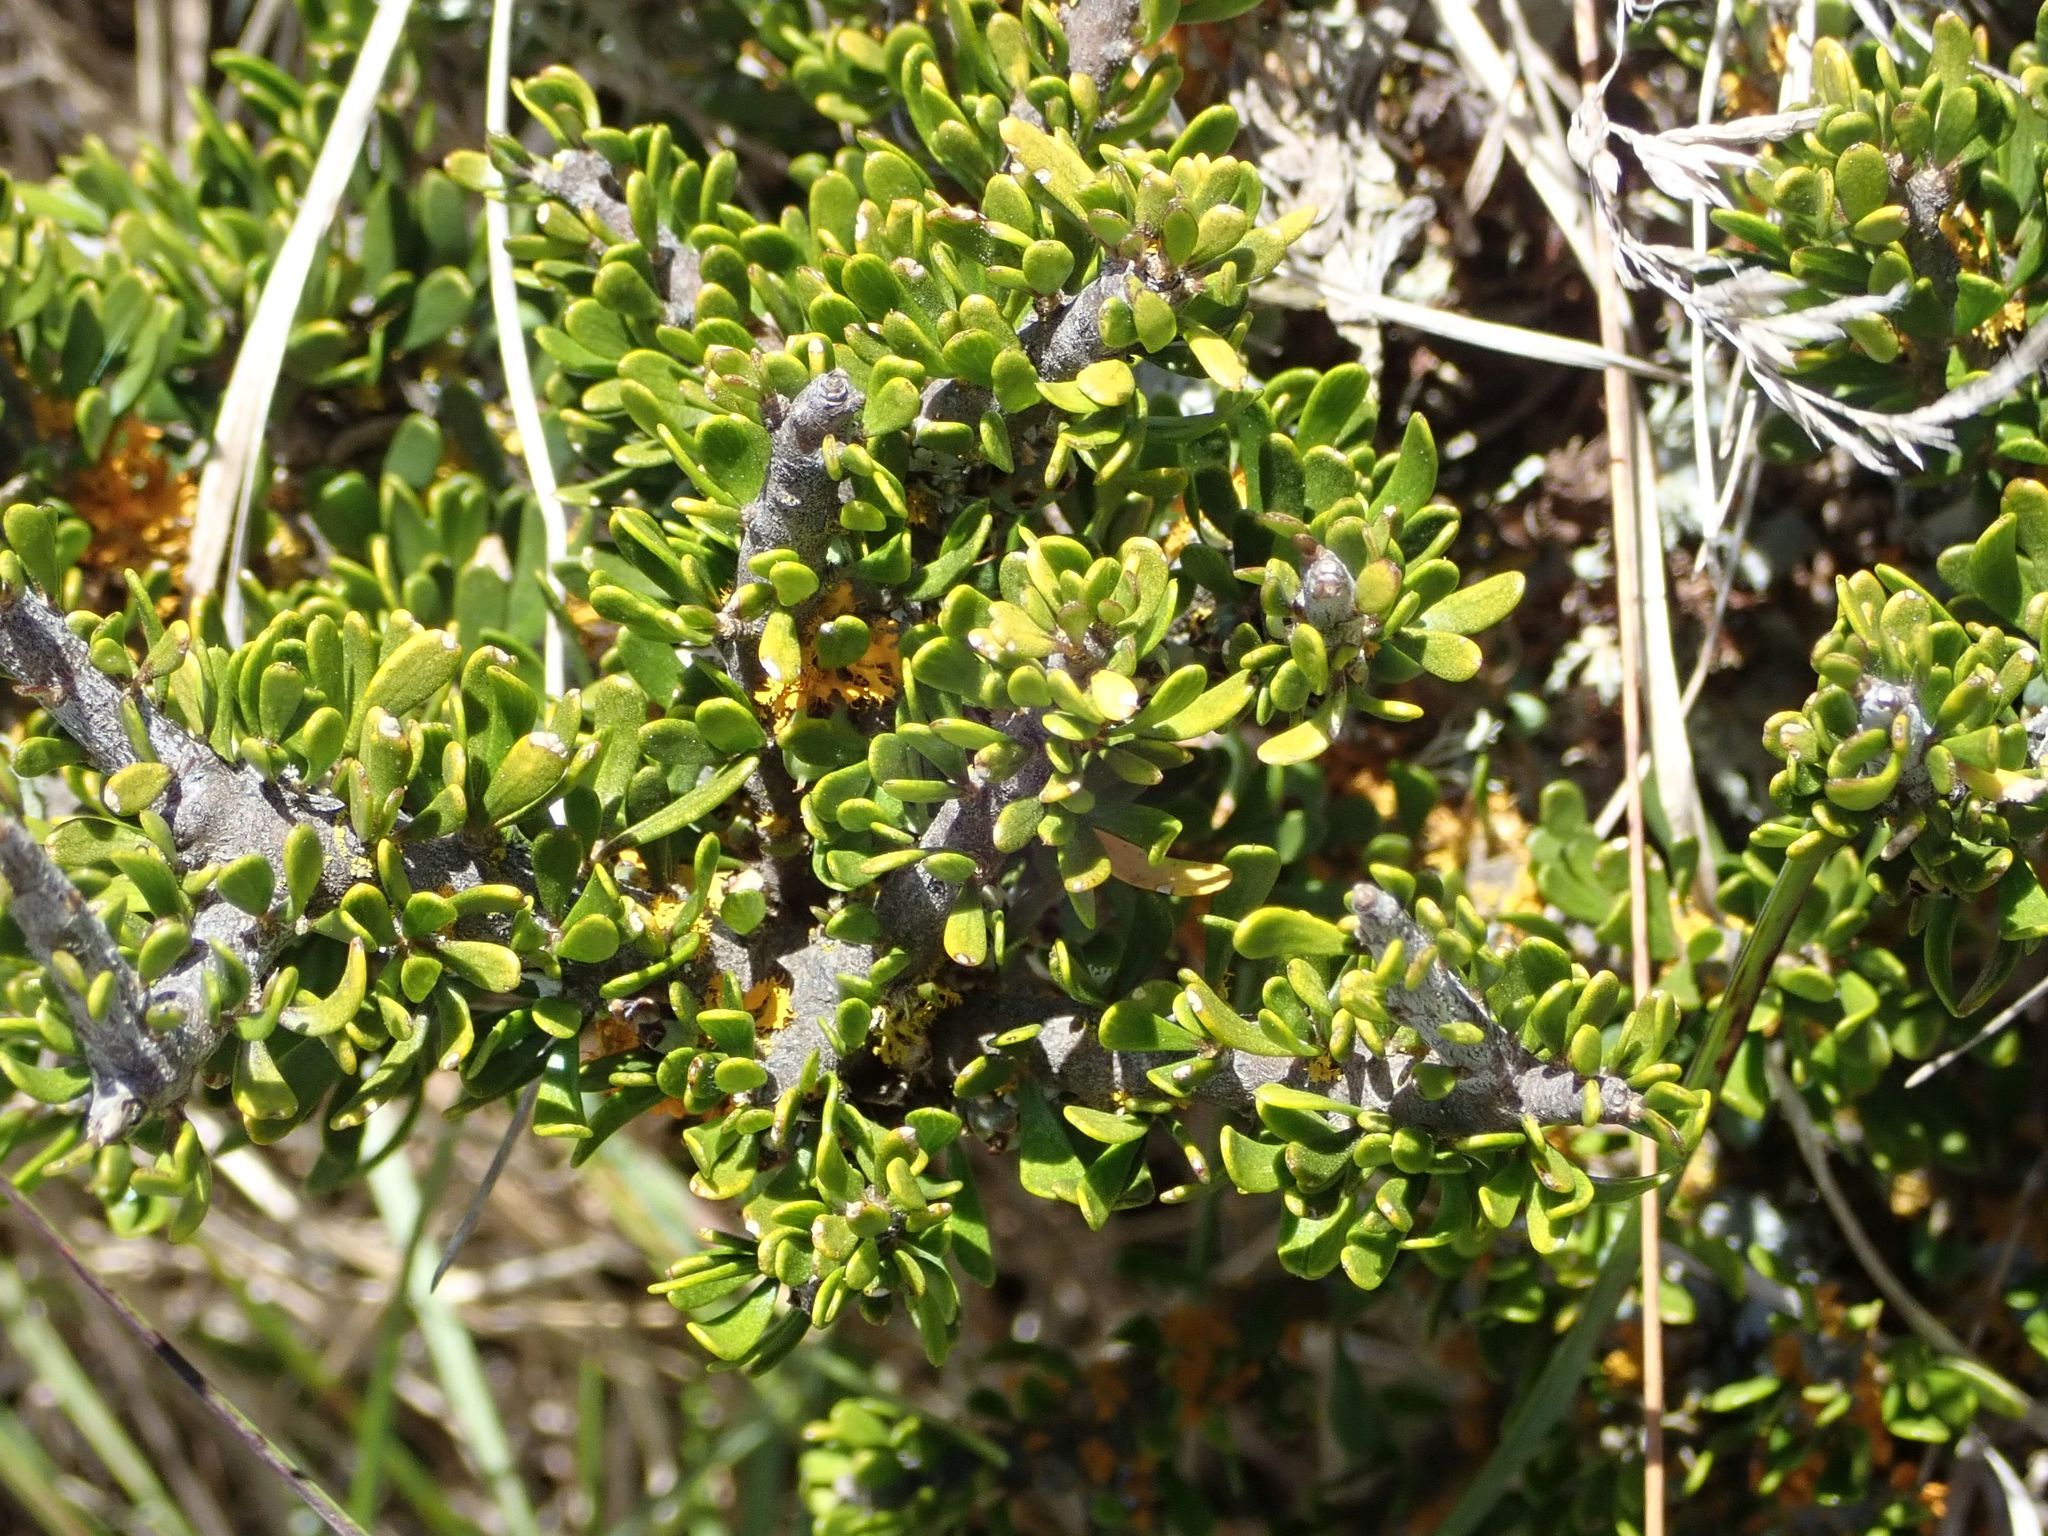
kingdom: Plantae
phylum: Tracheophyta
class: Magnoliopsida
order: Malpighiales
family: Violaceae
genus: Melicytus
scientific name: Melicytus alpinus
